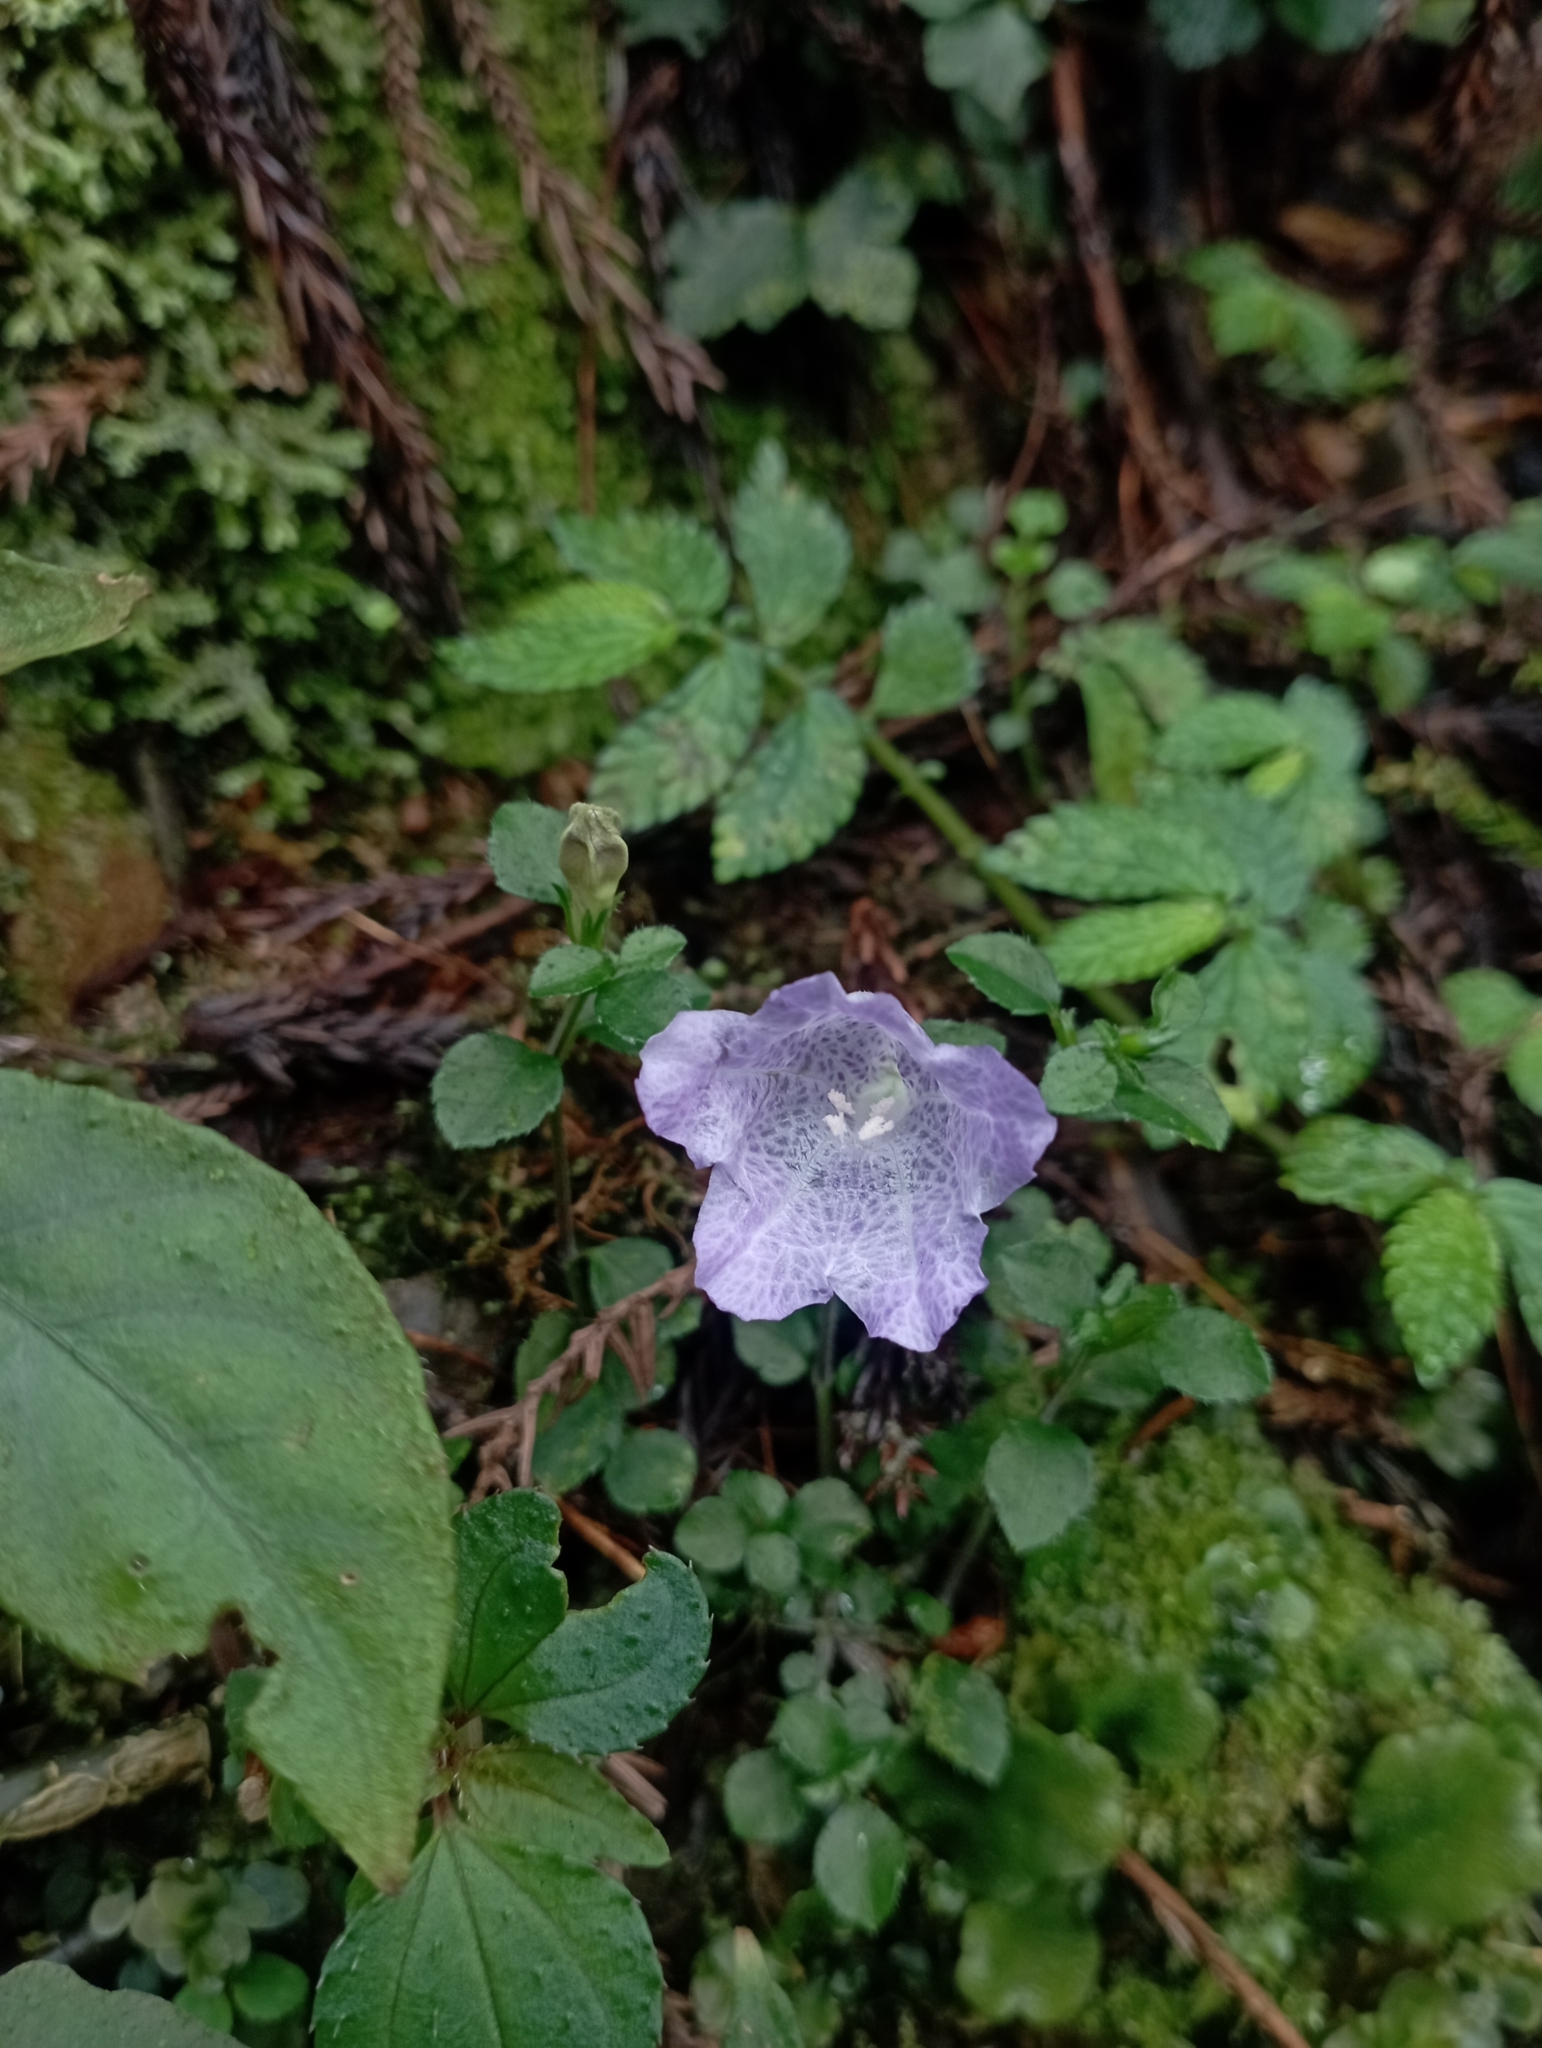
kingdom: Plantae
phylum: Tracheophyta
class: Magnoliopsida
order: Lamiales
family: Acanthaceae
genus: Strobilanthes
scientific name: Strobilanthes rankanensis
